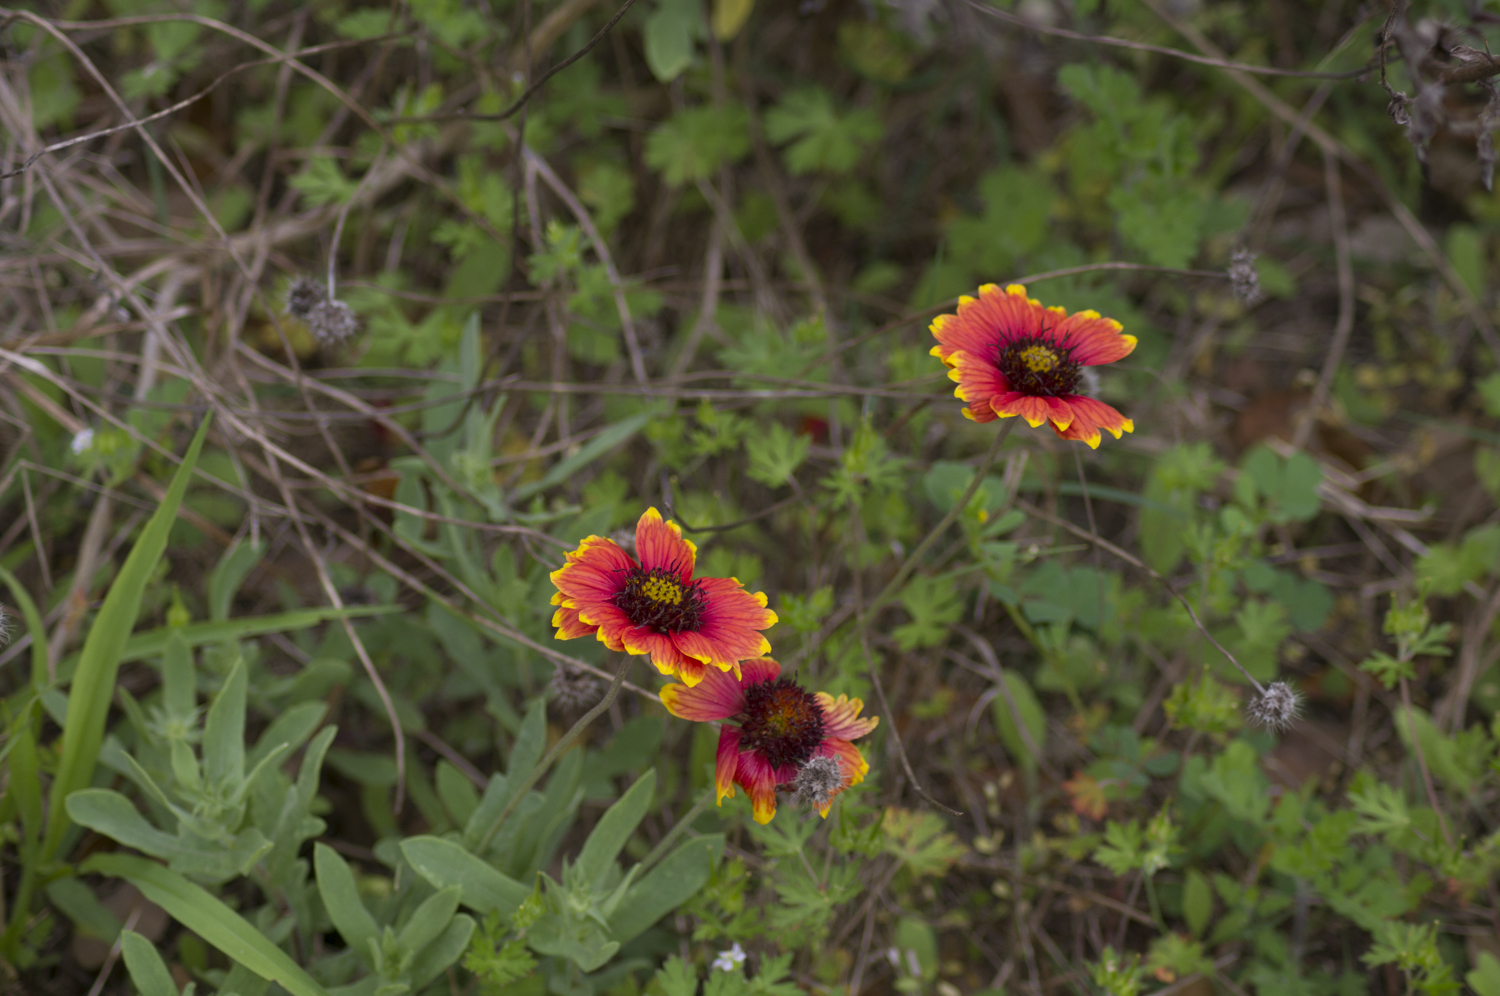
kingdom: Plantae
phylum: Tracheophyta
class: Magnoliopsida
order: Asterales
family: Asteraceae
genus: Gaillardia
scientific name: Gaillardia pulchella
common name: Firewheel
